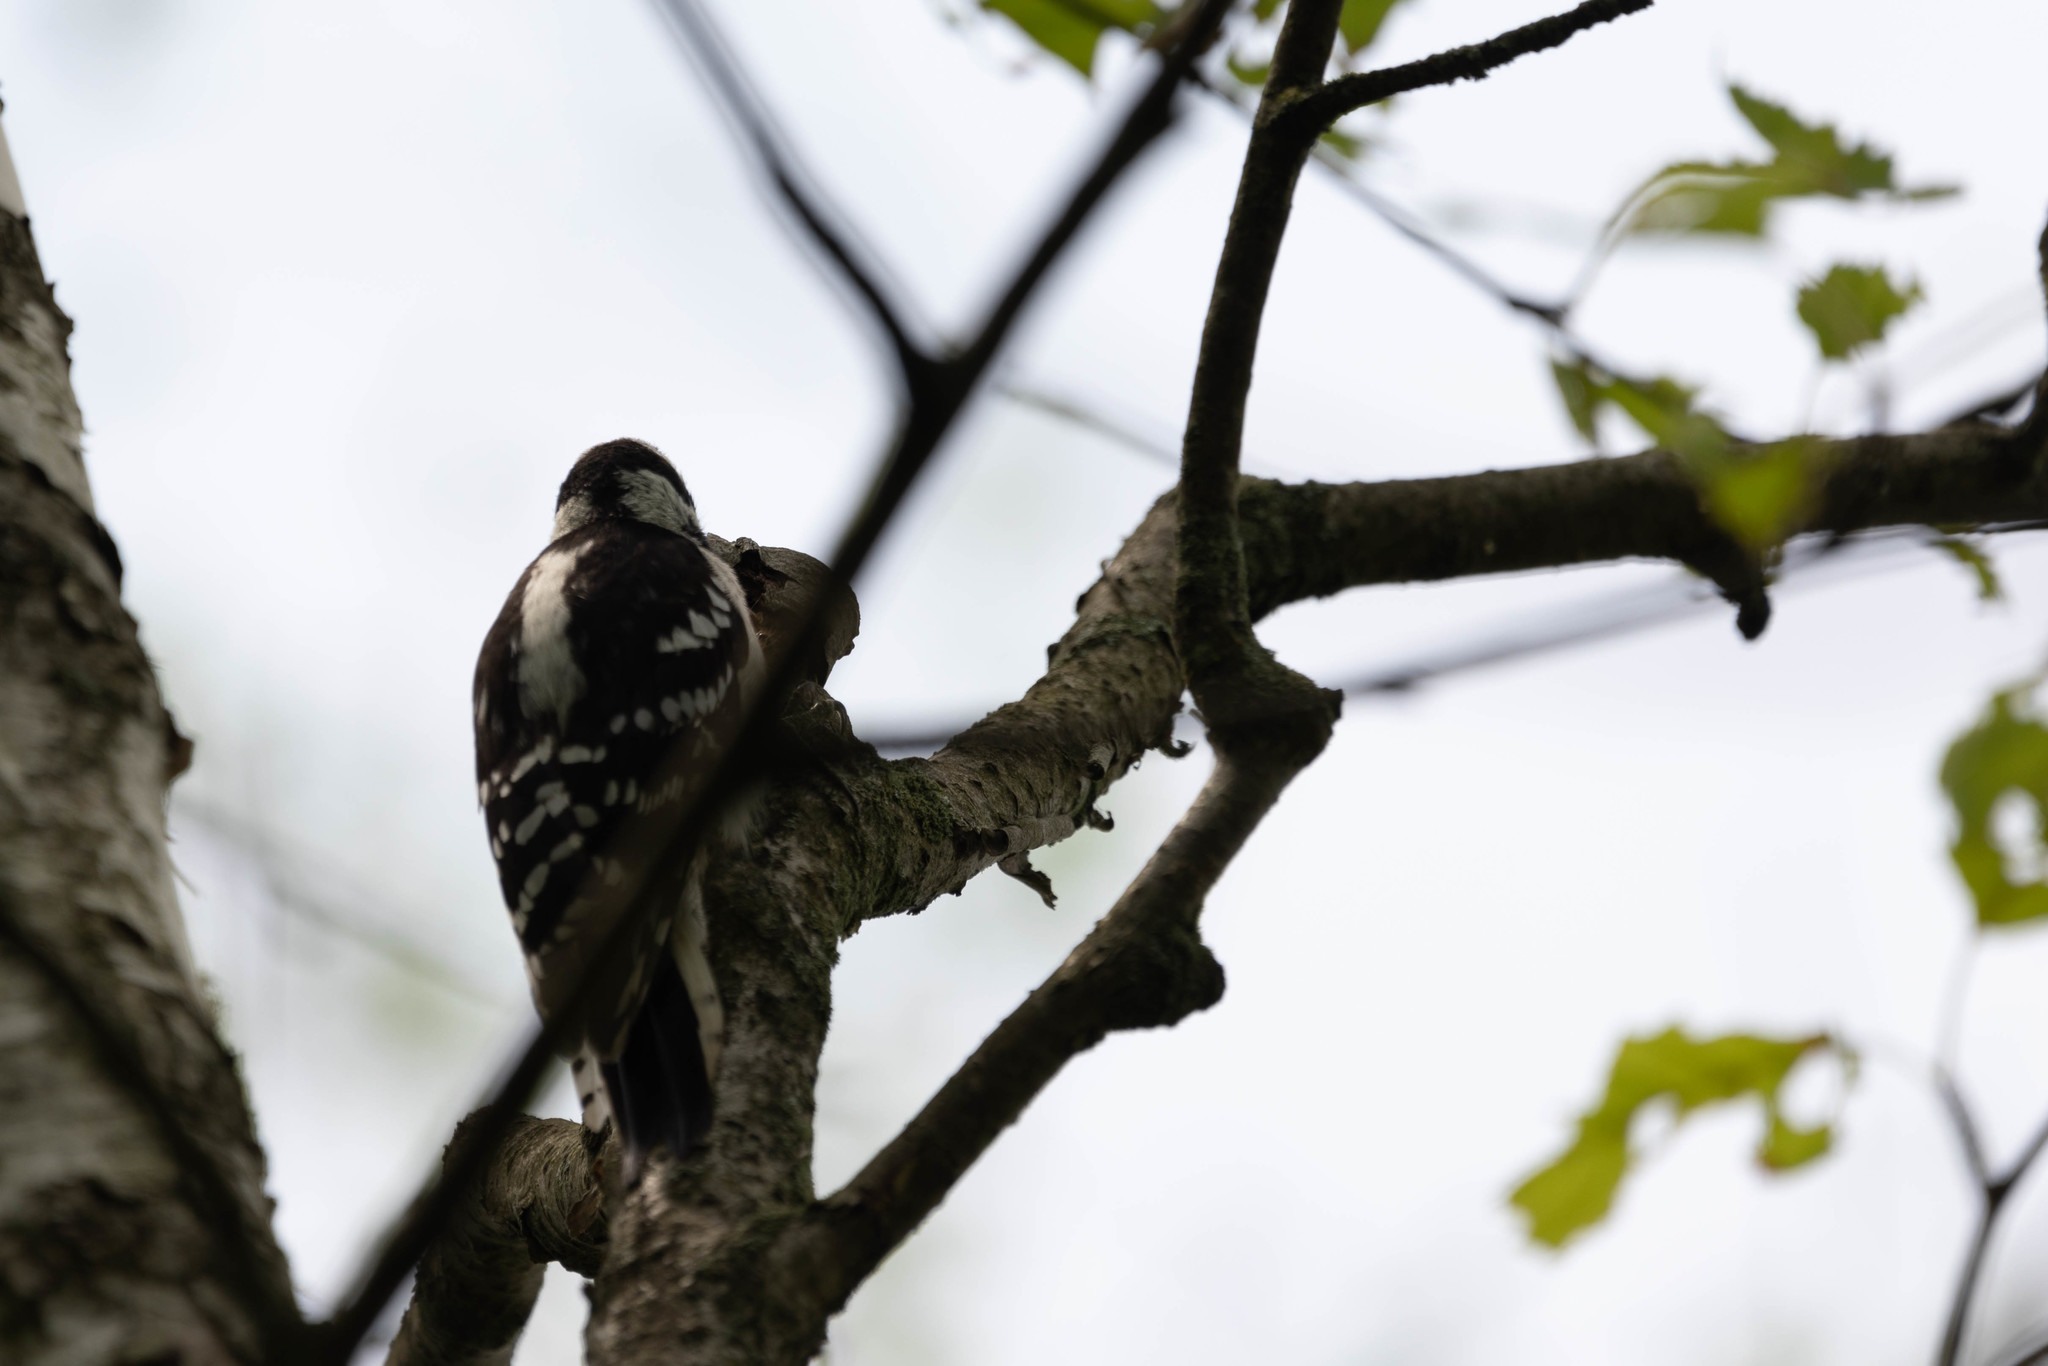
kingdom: Animalia
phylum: Chordata
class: Aves
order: Piciformes
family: Picidae
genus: Dryobates
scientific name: Dryobates pubescens
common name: Downy woodpecker
